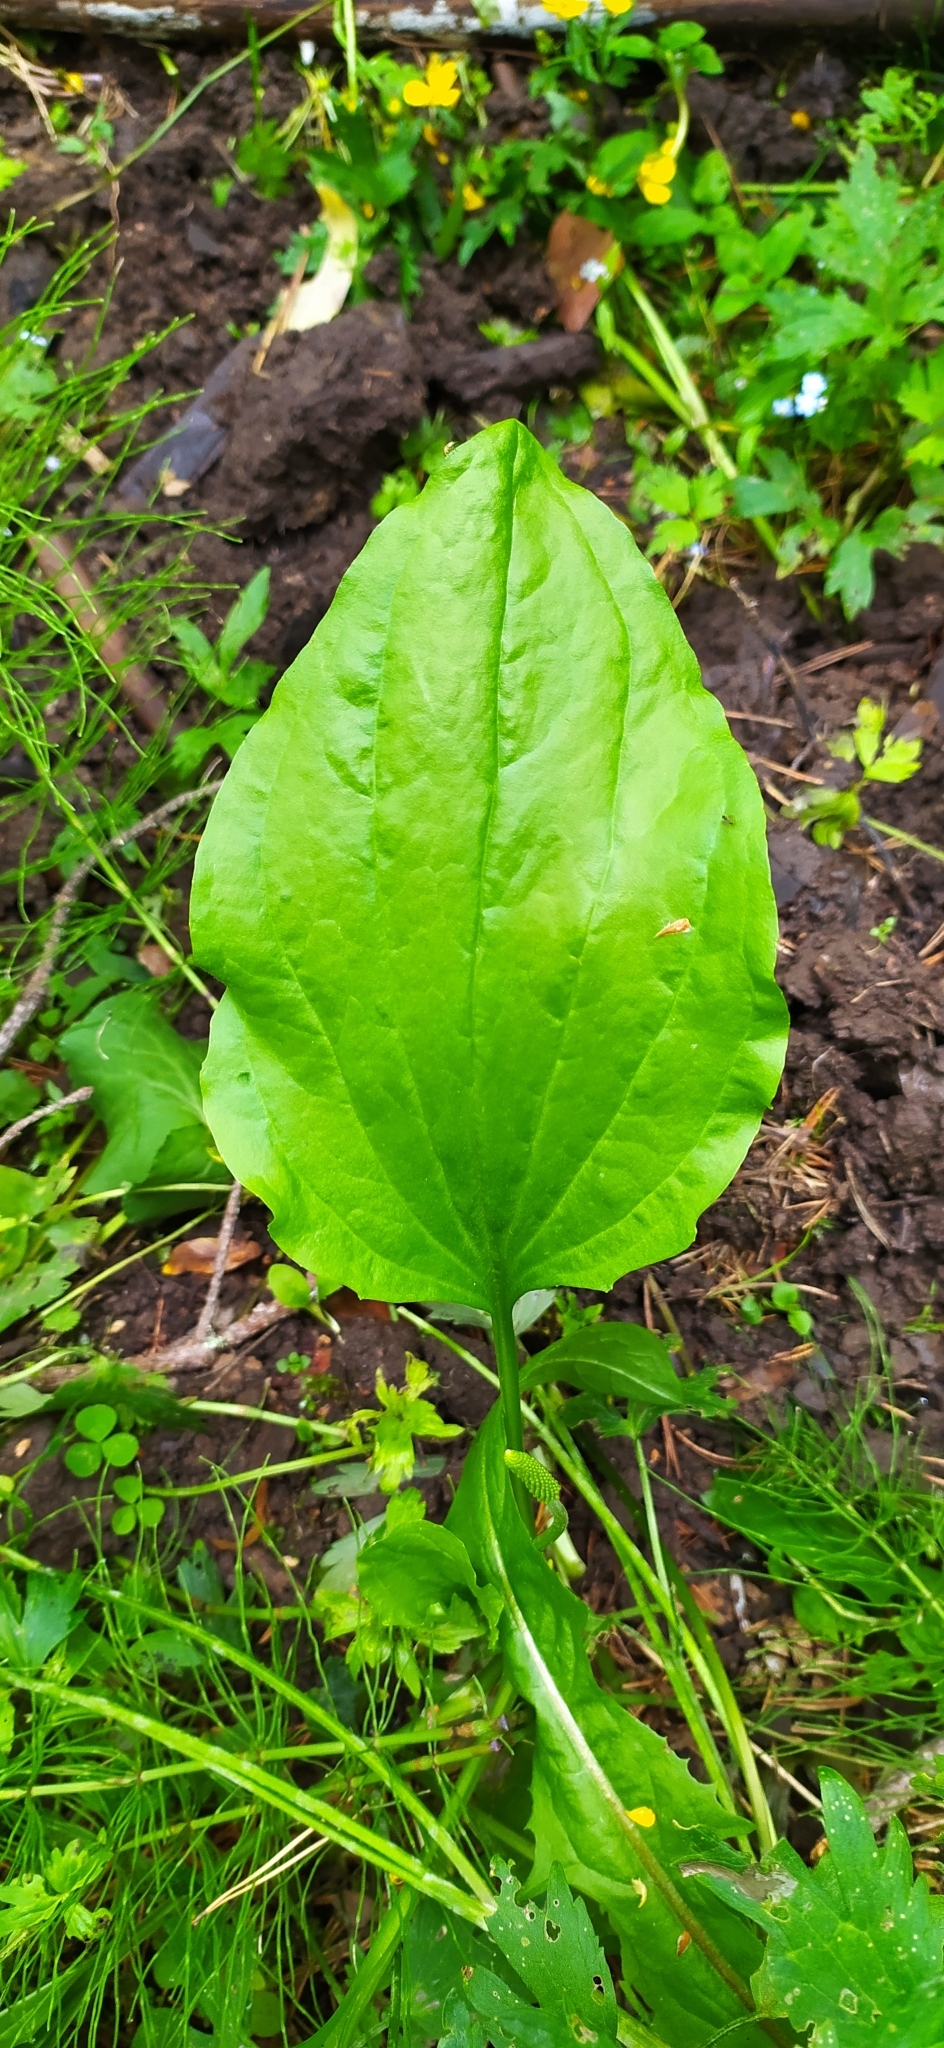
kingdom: Plantae
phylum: Tracheophyta
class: Magnoliopsida
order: Lamiales
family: Plantaginaceae
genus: Plantago
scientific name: Plantago major
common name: Common plantain
